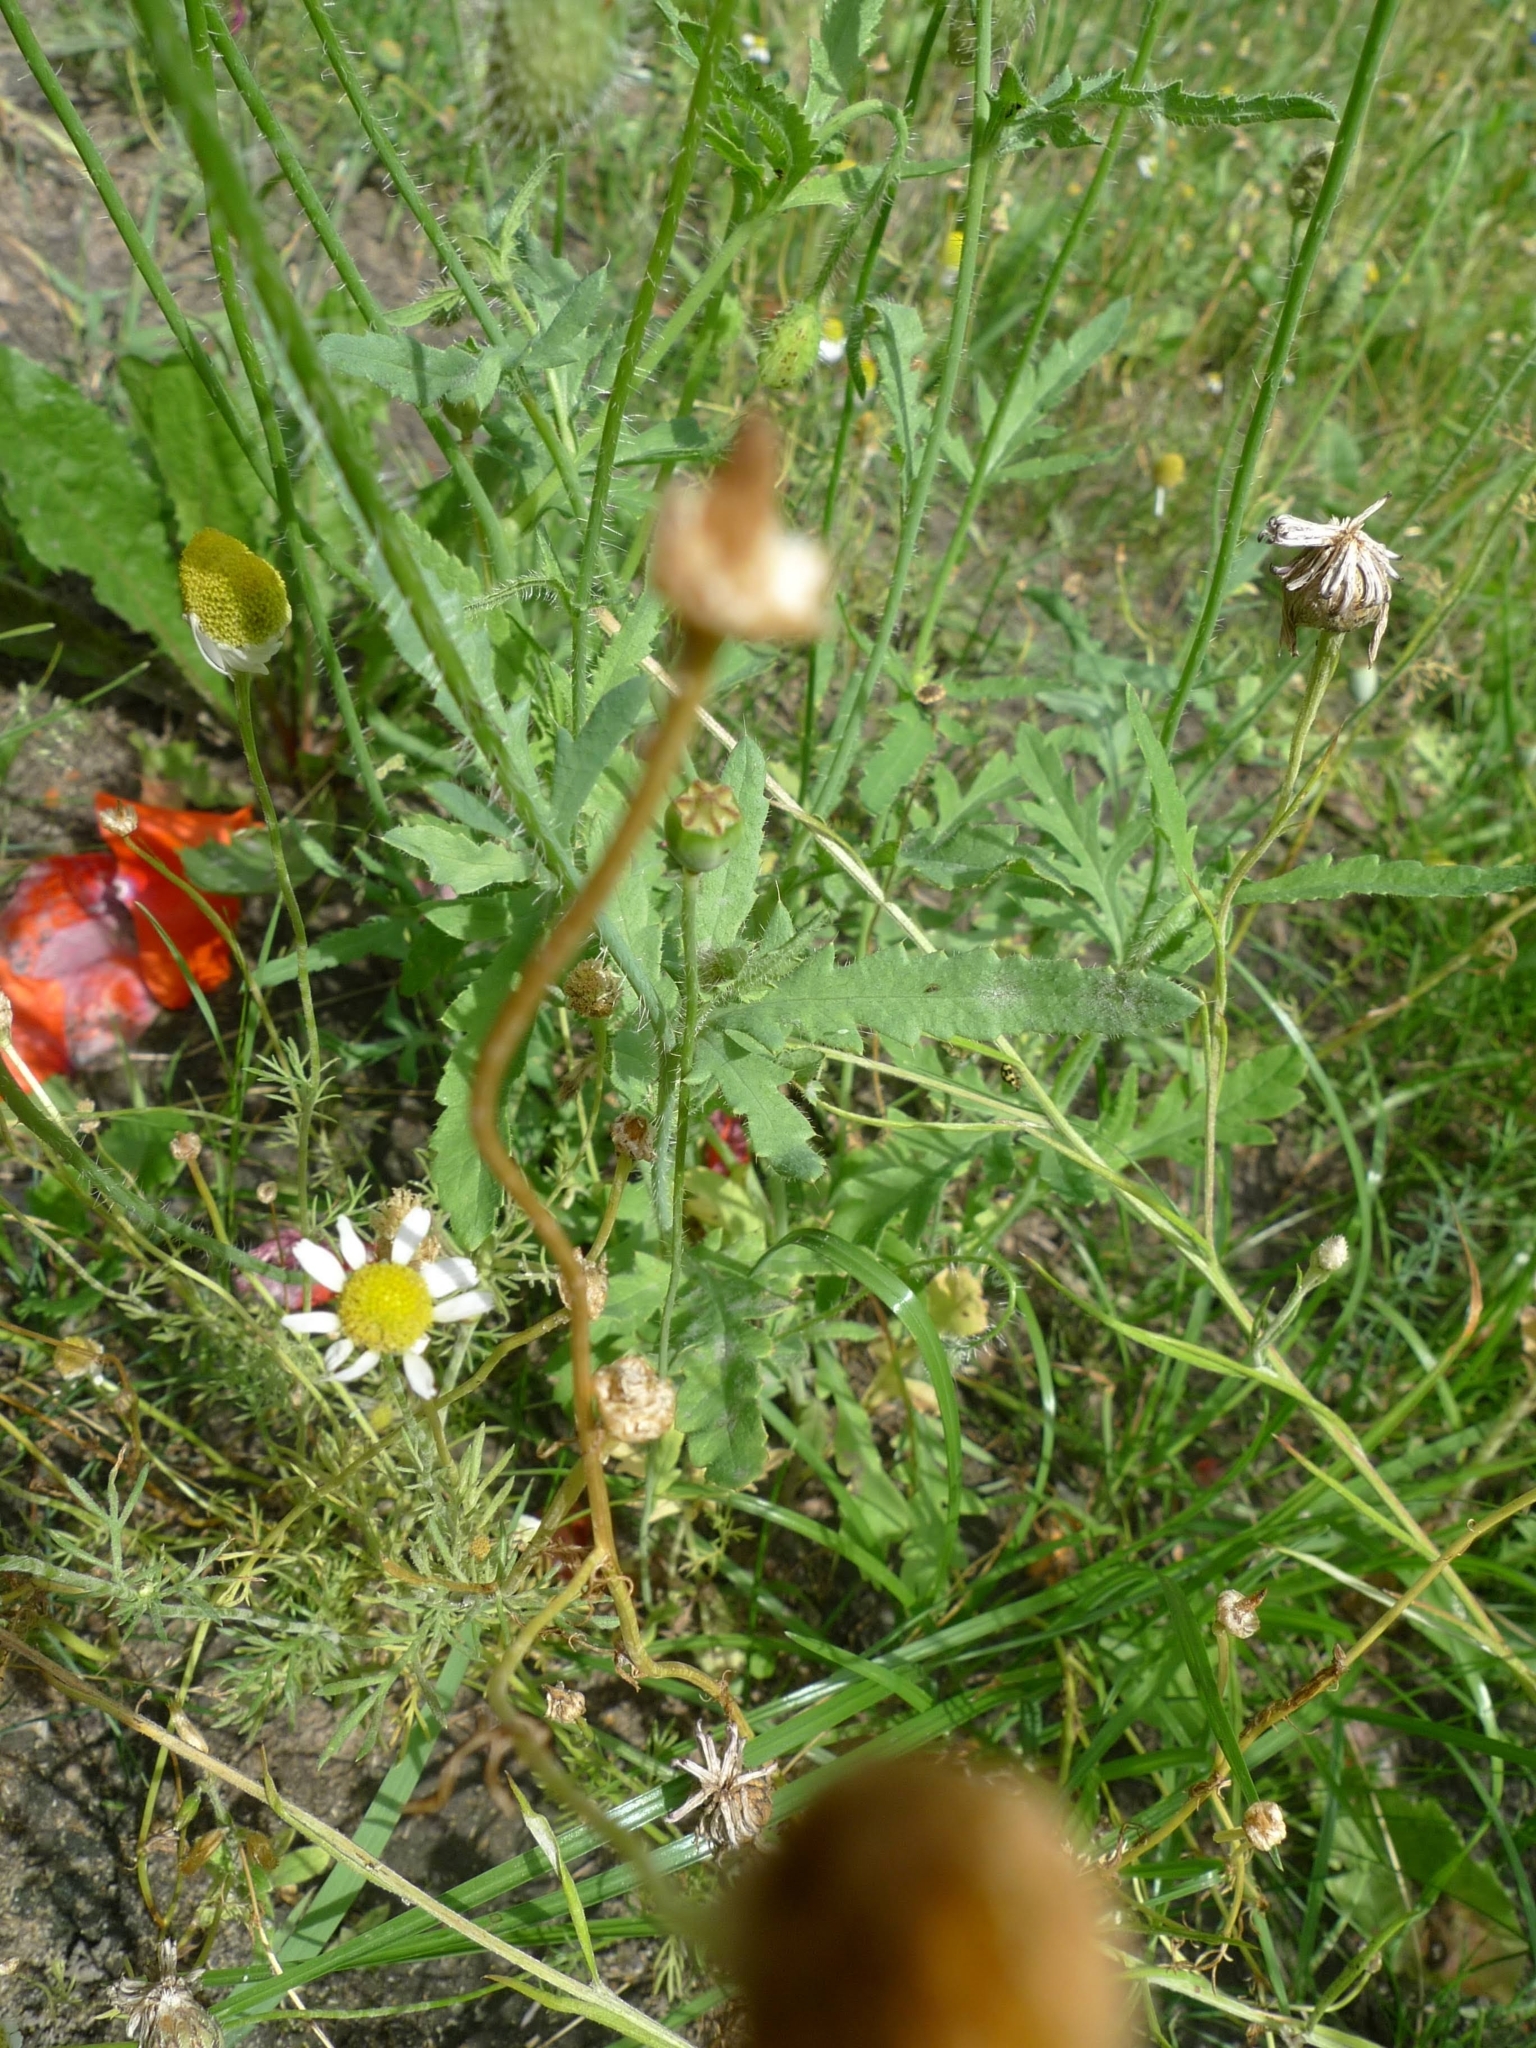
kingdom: Plantae
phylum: Tracheophyta
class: Magnoliopsida
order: Ranunculales
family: Papaveraceae
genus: Papaver
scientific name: Papaver rhoeas
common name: Corn poppy
